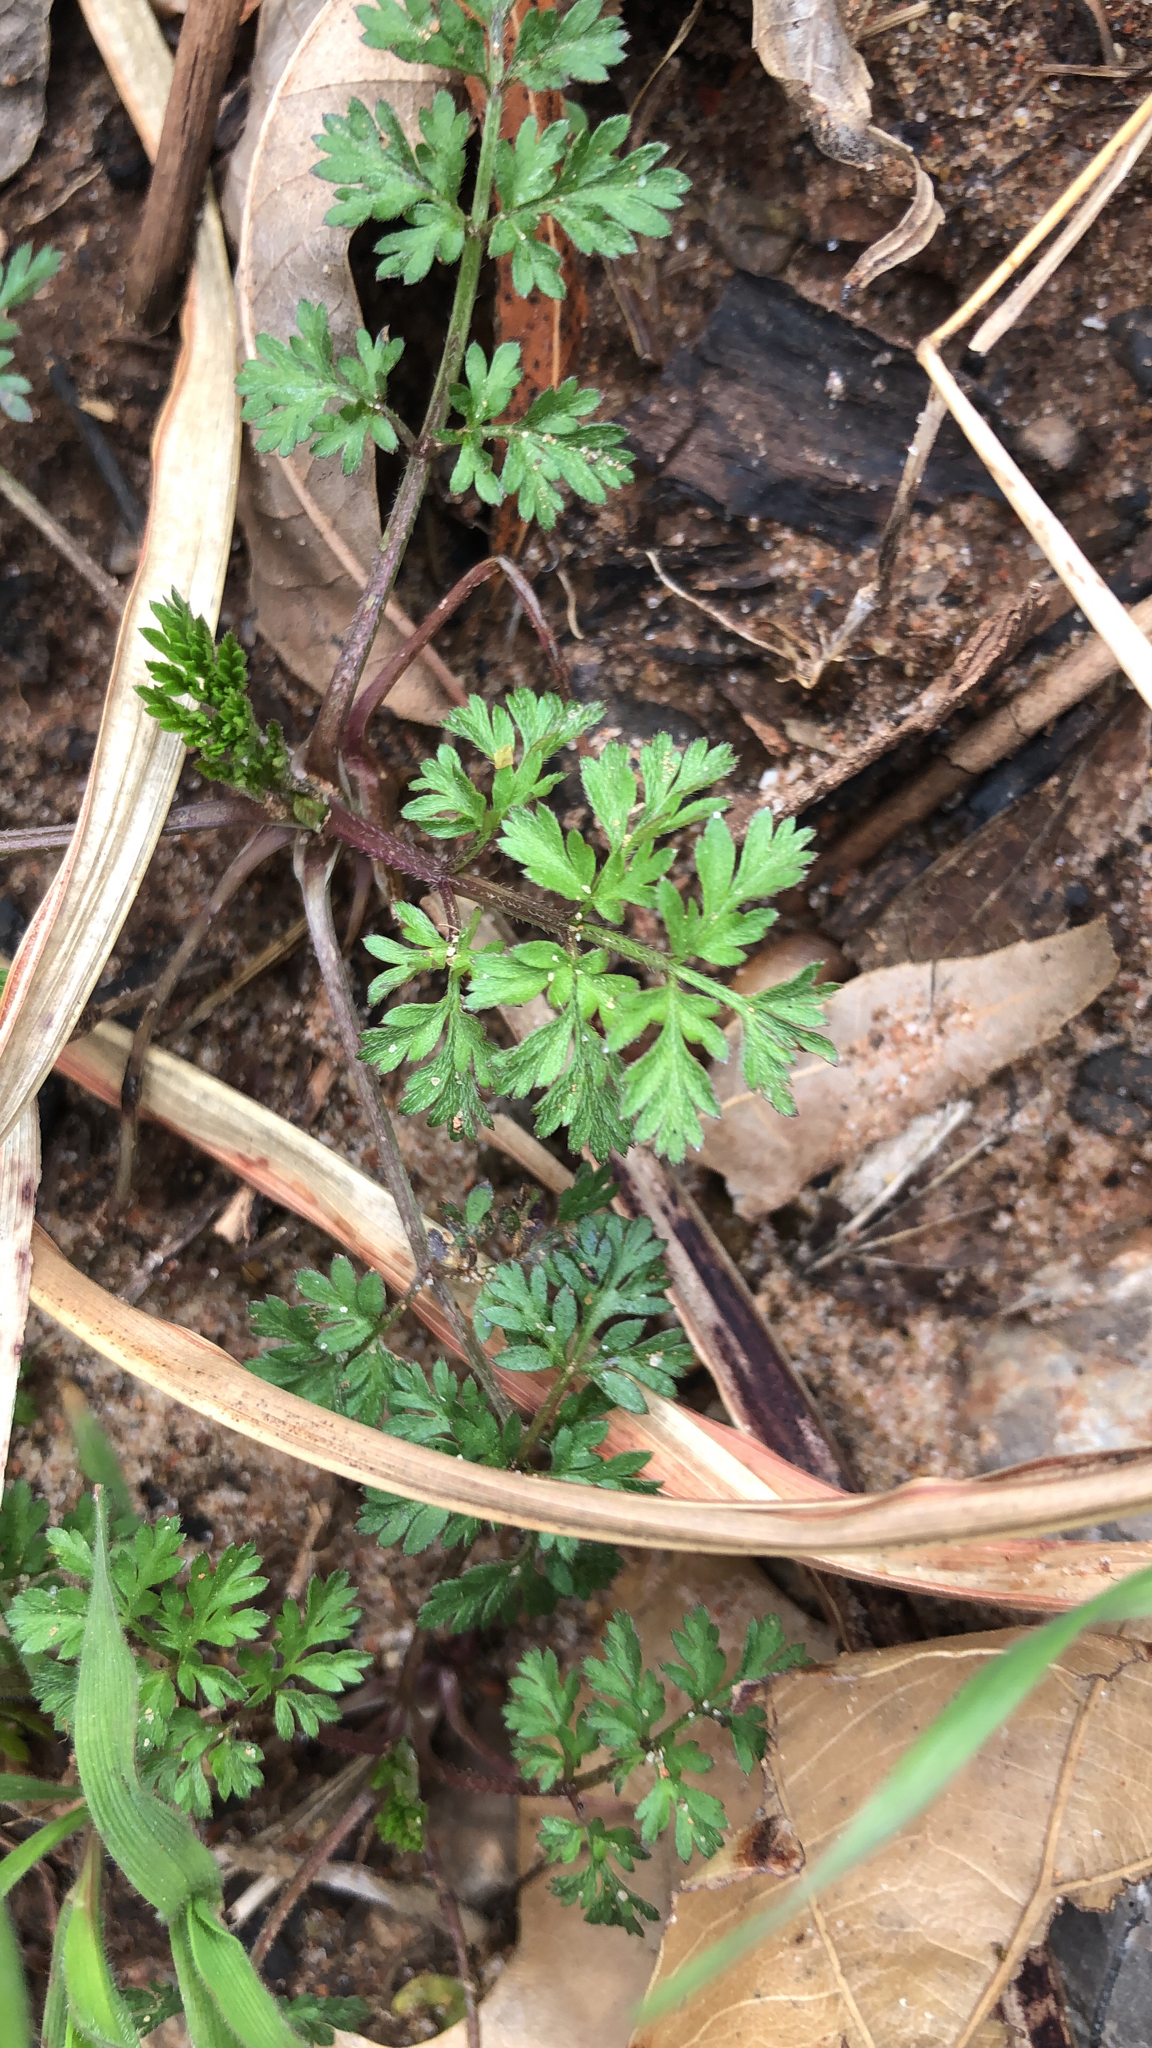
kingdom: Plantae
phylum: Tracheophyta
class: Magnoliopsida
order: Apiales
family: Apiaceae
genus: Chaerophyllum
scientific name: Chaerophyllum tainturieri
